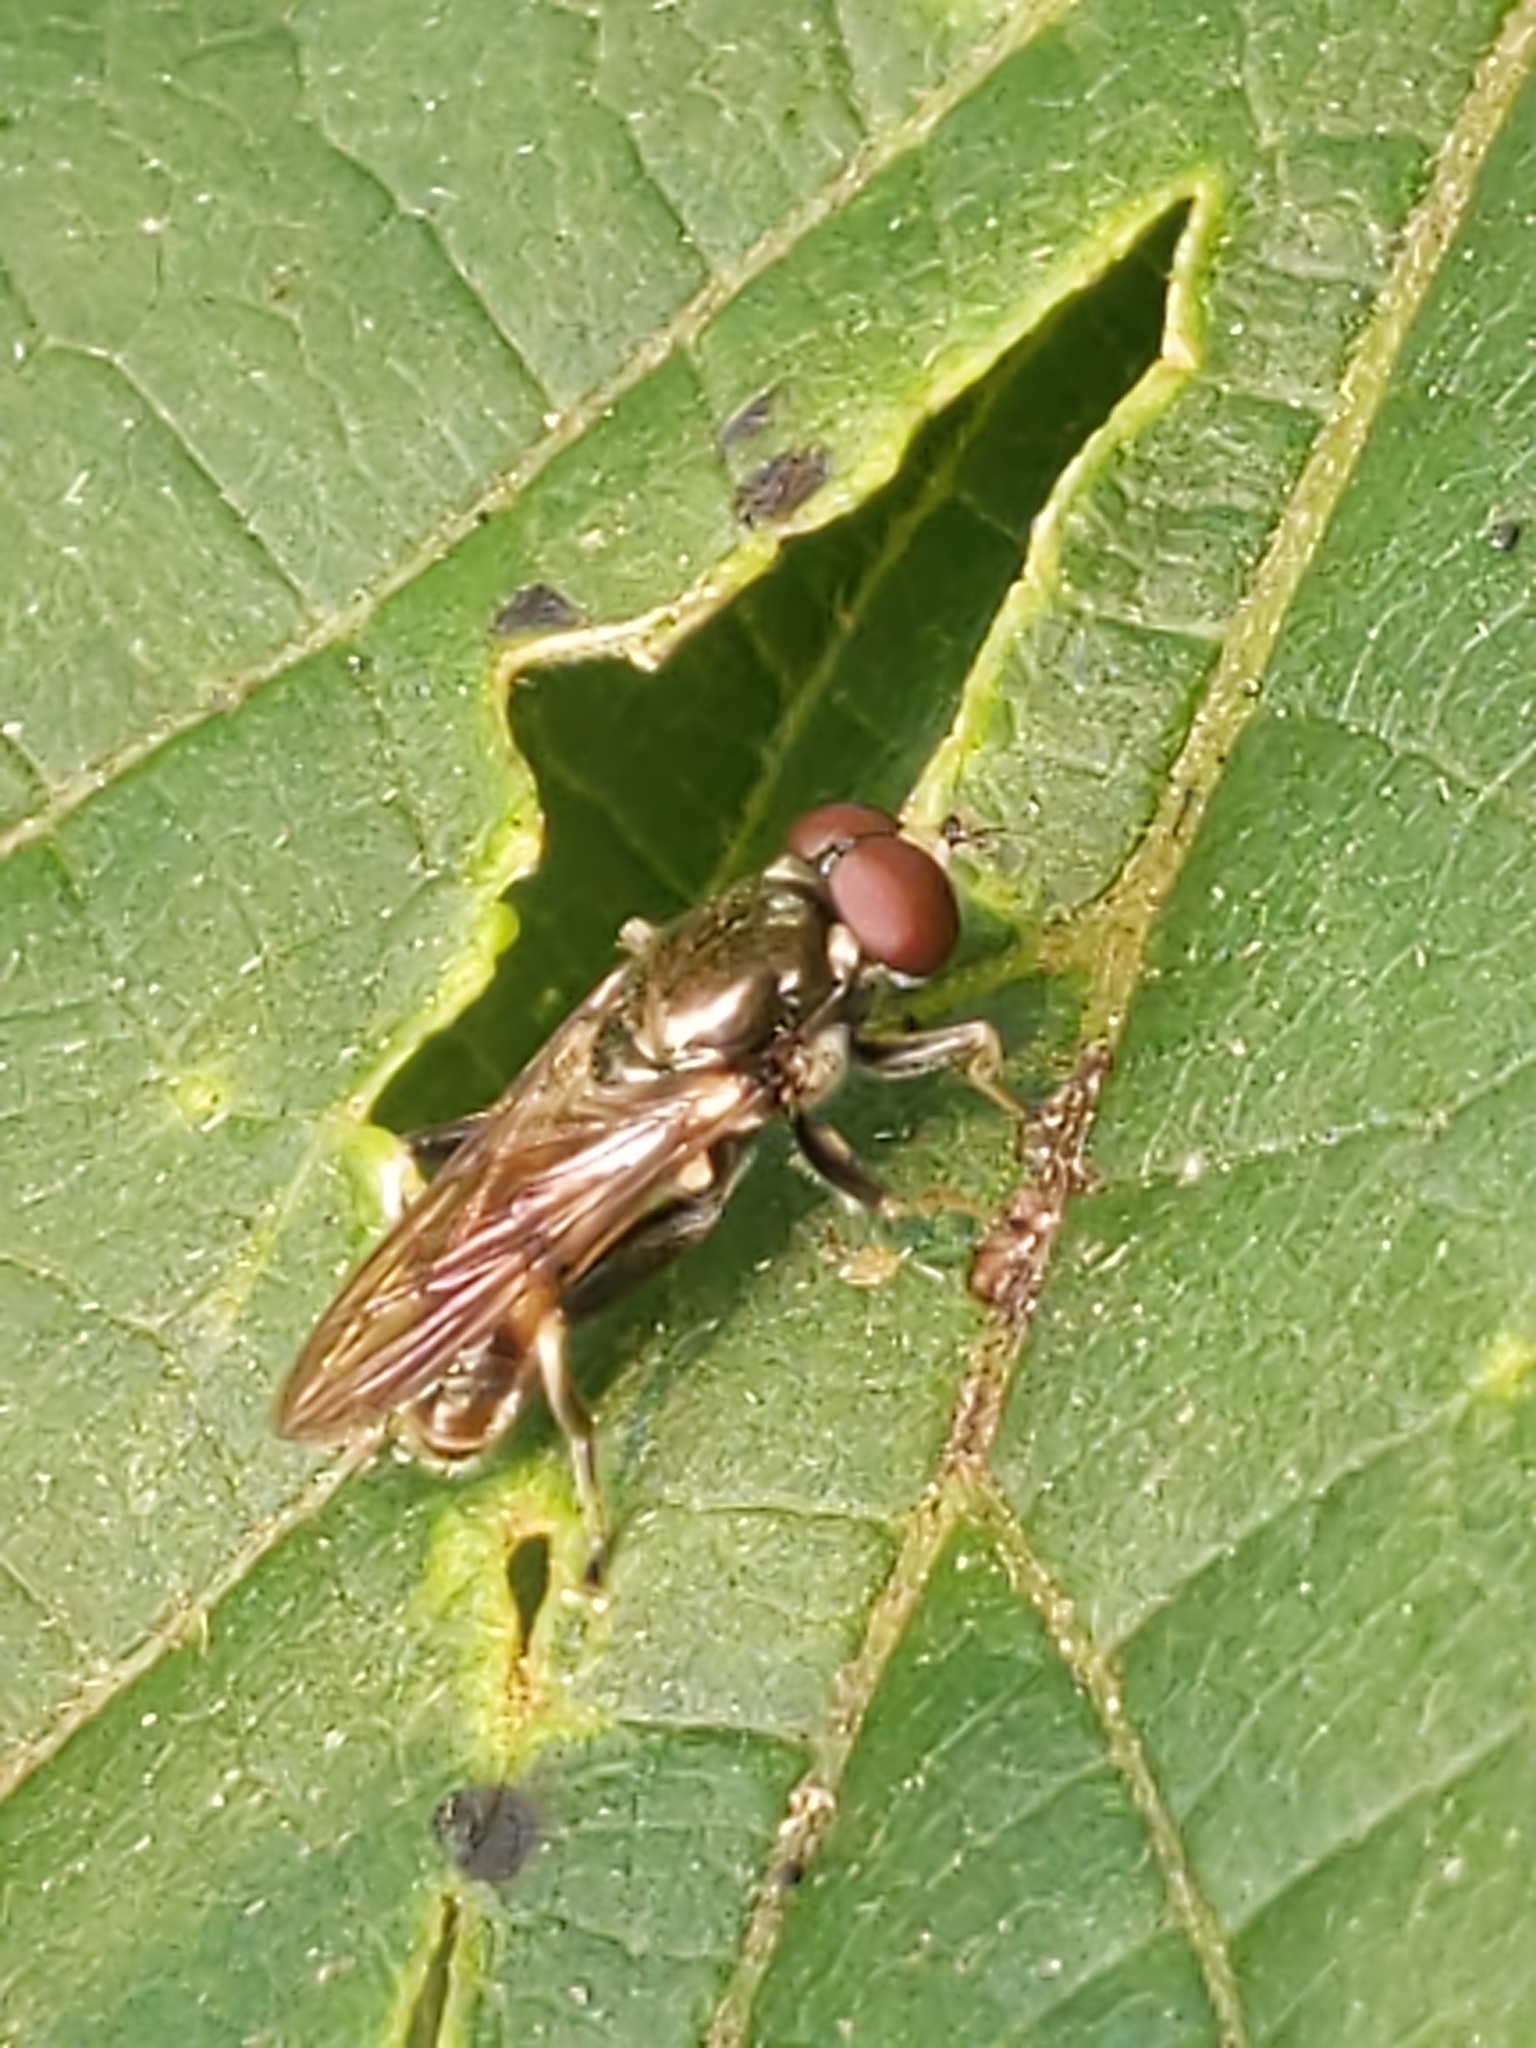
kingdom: Animalia
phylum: Arthropoda
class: Insecta
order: Diptera
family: Syrphidae
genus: Xylota
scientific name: Xylota
